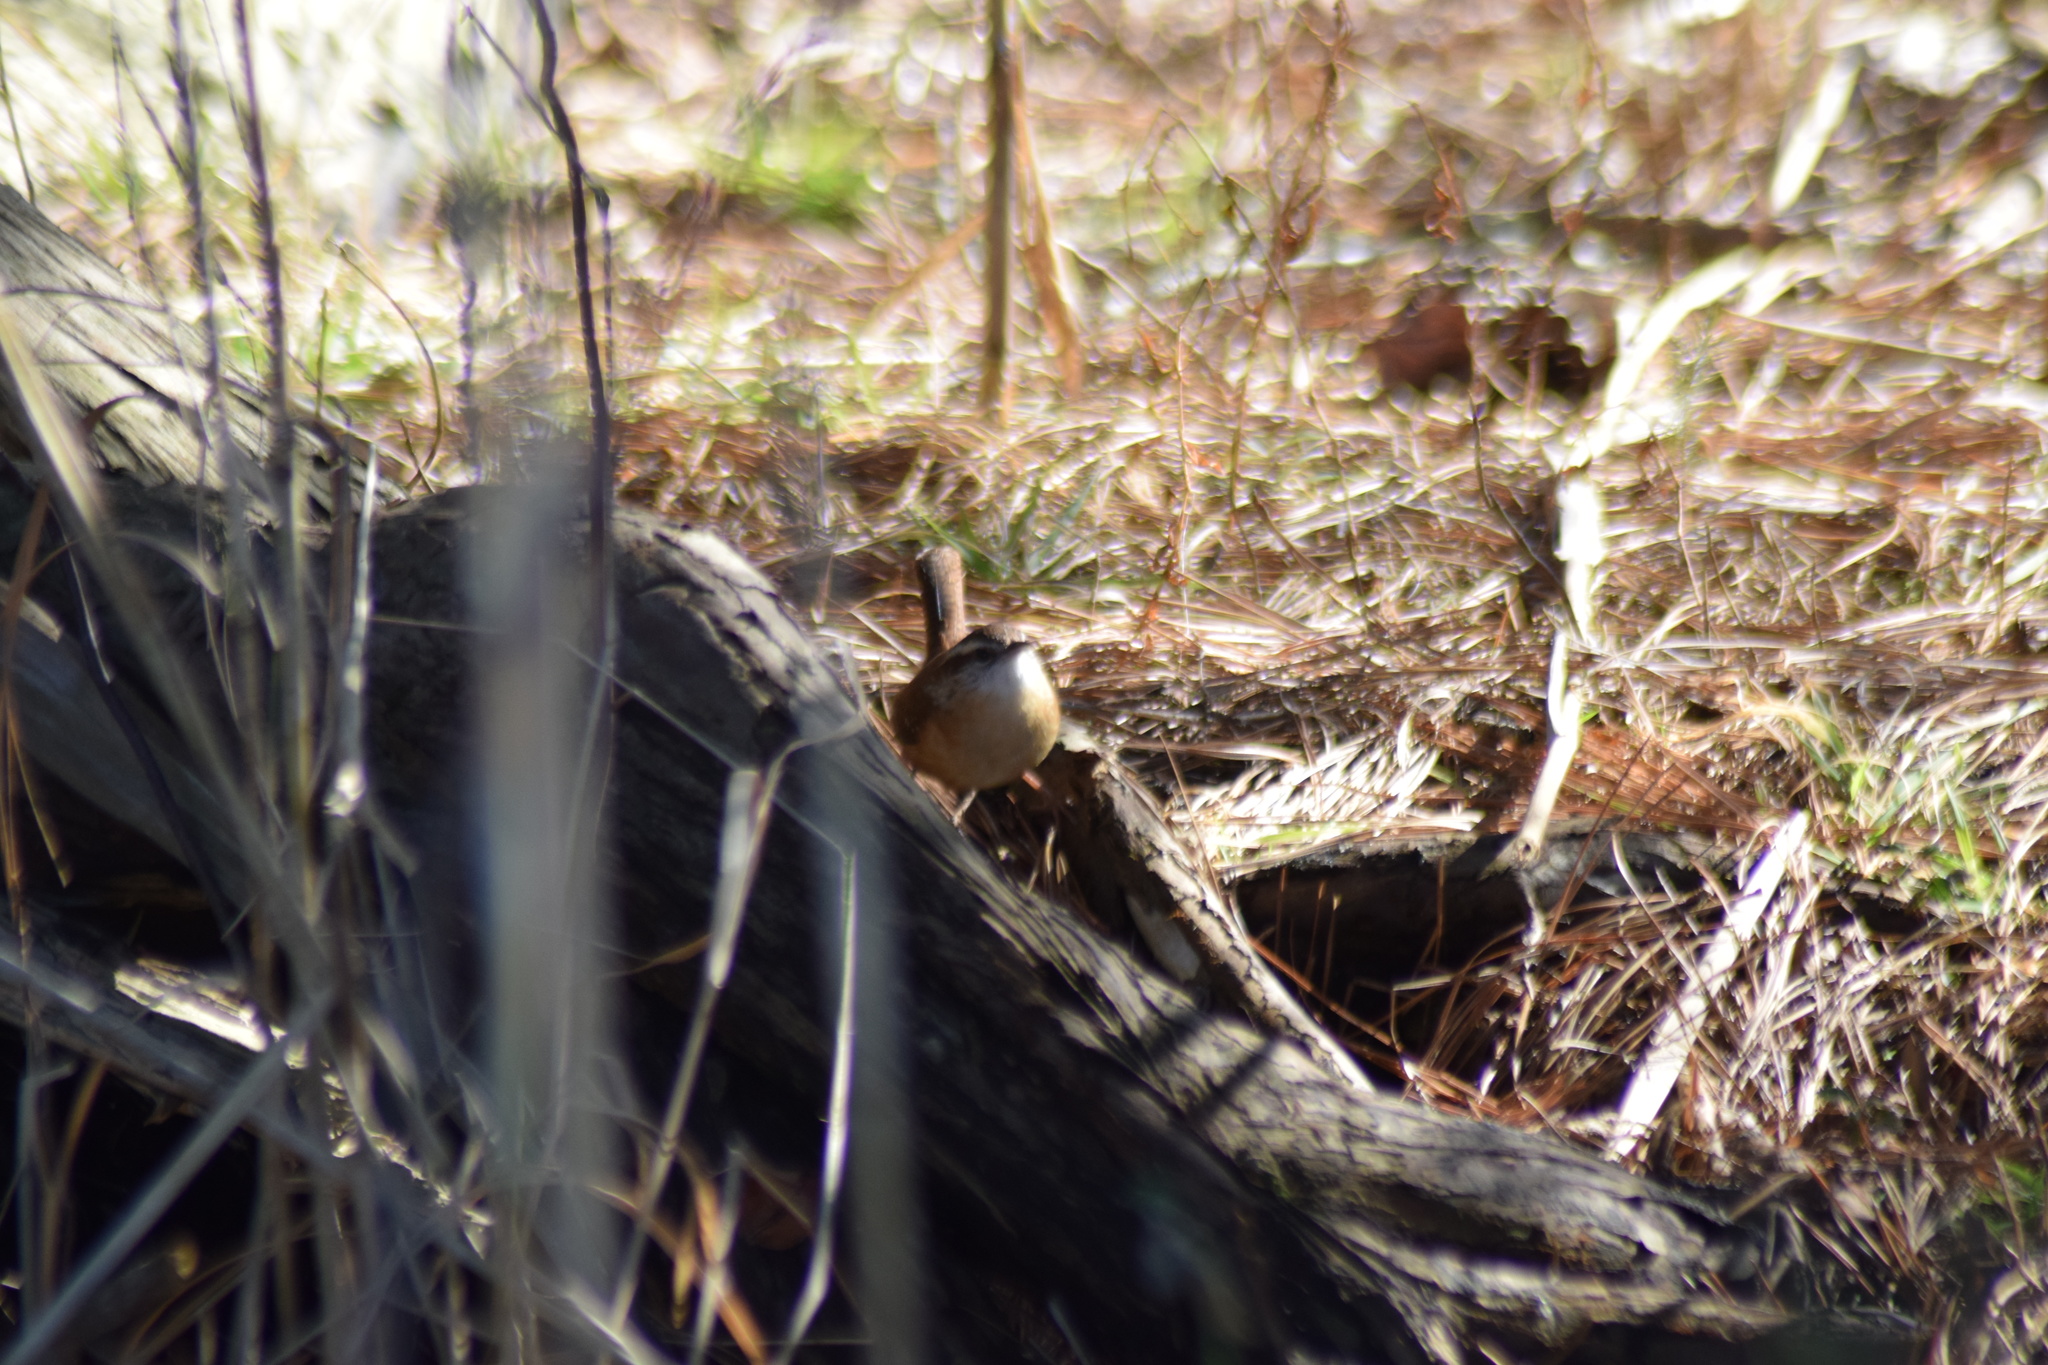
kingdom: Animalia
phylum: Chordata
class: Aves
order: Passeriformes
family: Troglodytidae
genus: Thryothorus
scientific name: Thryothorus ludovicianus
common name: Carolina wren
